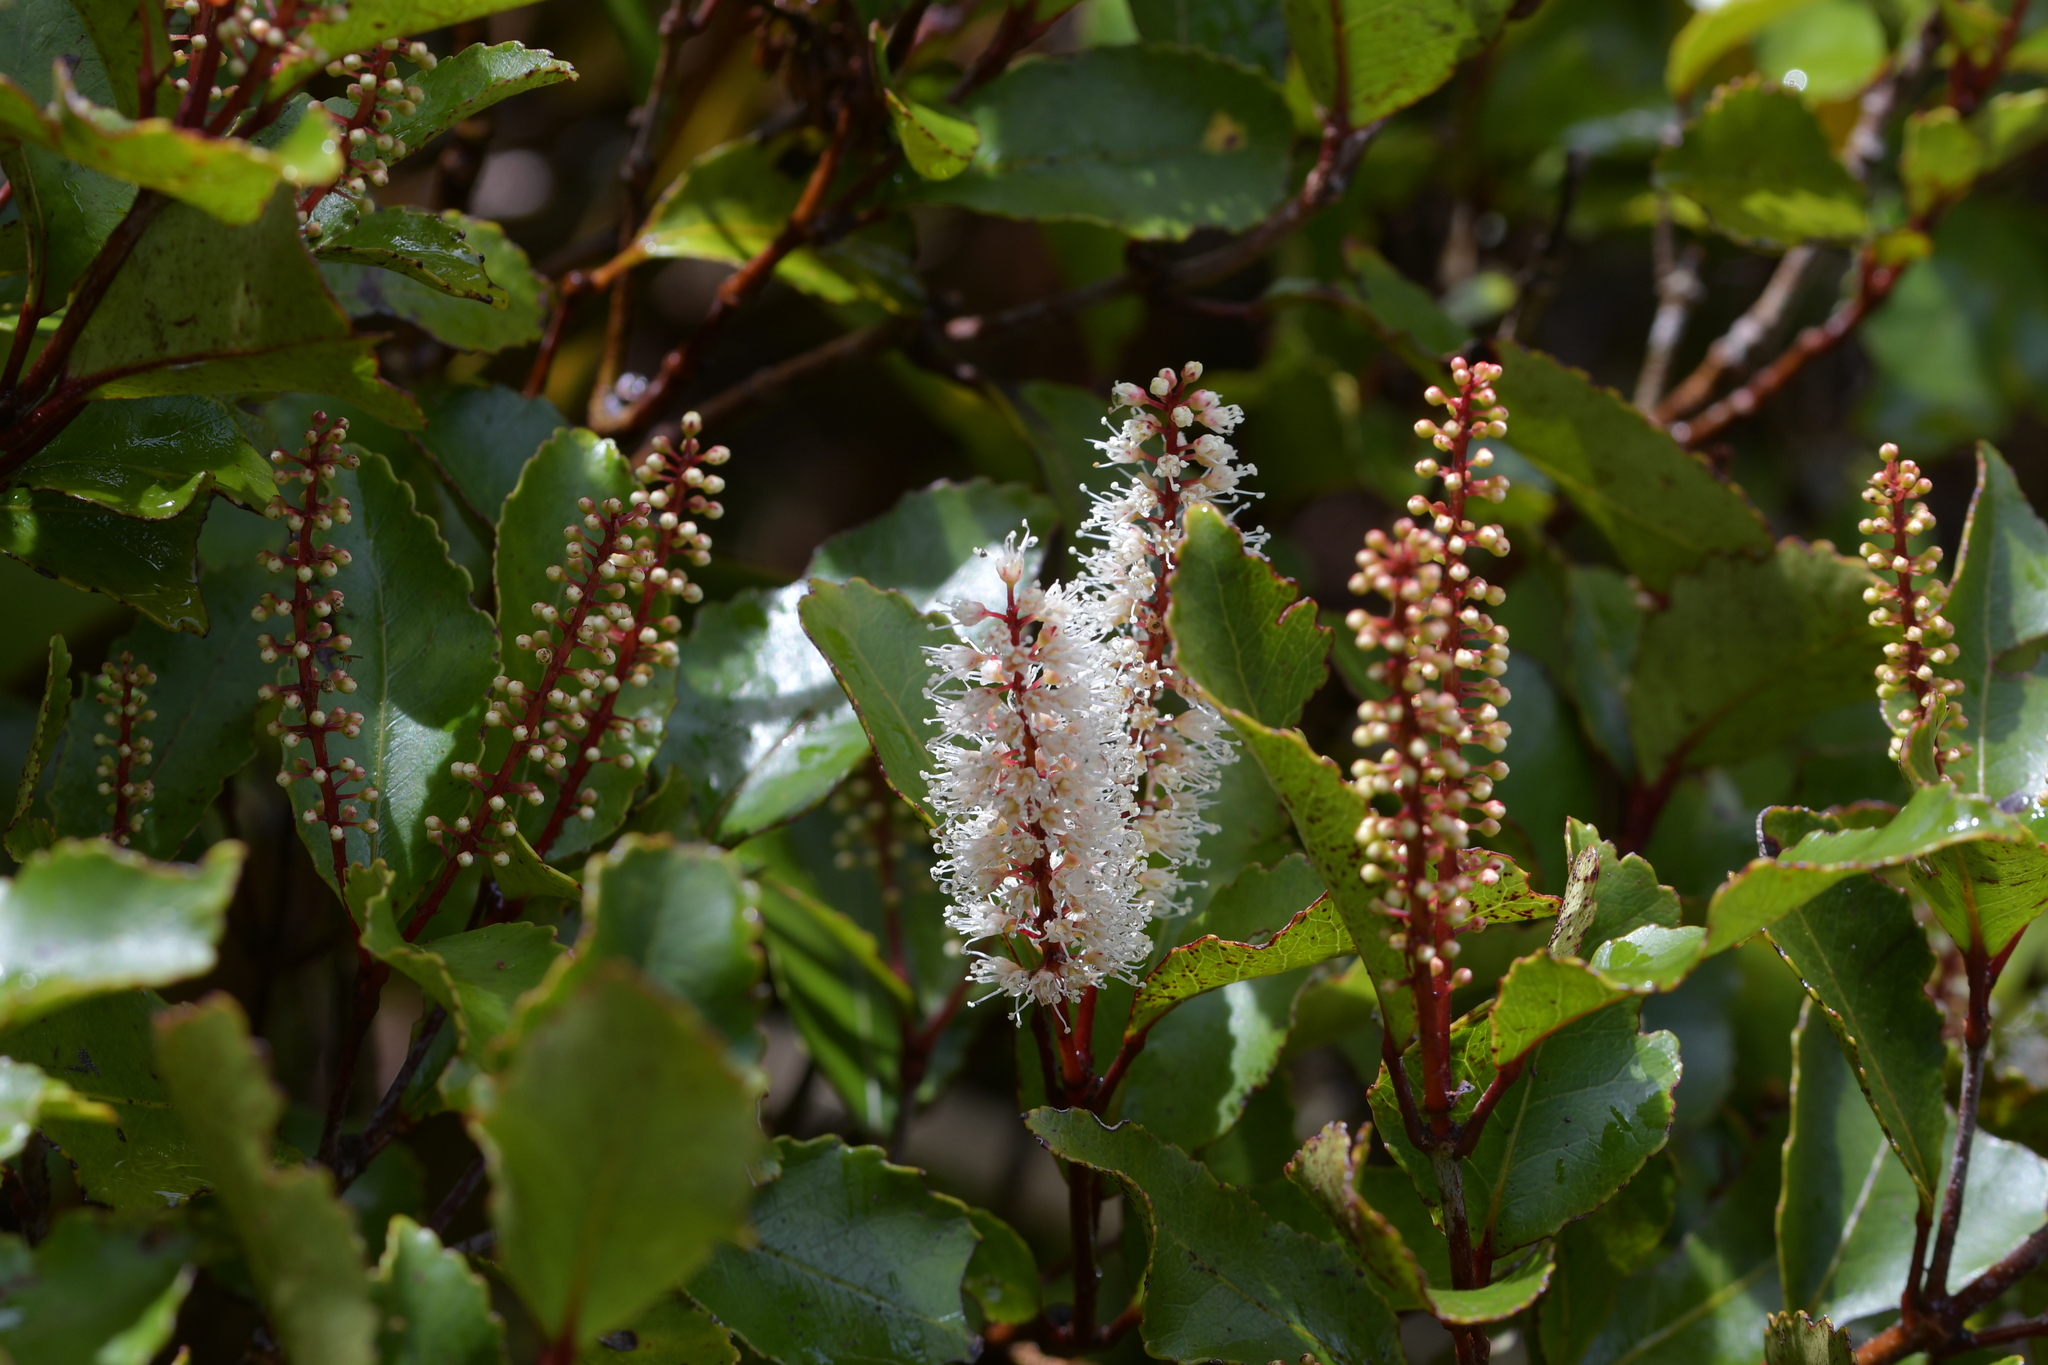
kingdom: Plantae
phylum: Tracheophyta
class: Magnoliopsida
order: Oxalidales
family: Cunoniaceae
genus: Pterophylla
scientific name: Pterophylla racemosa
